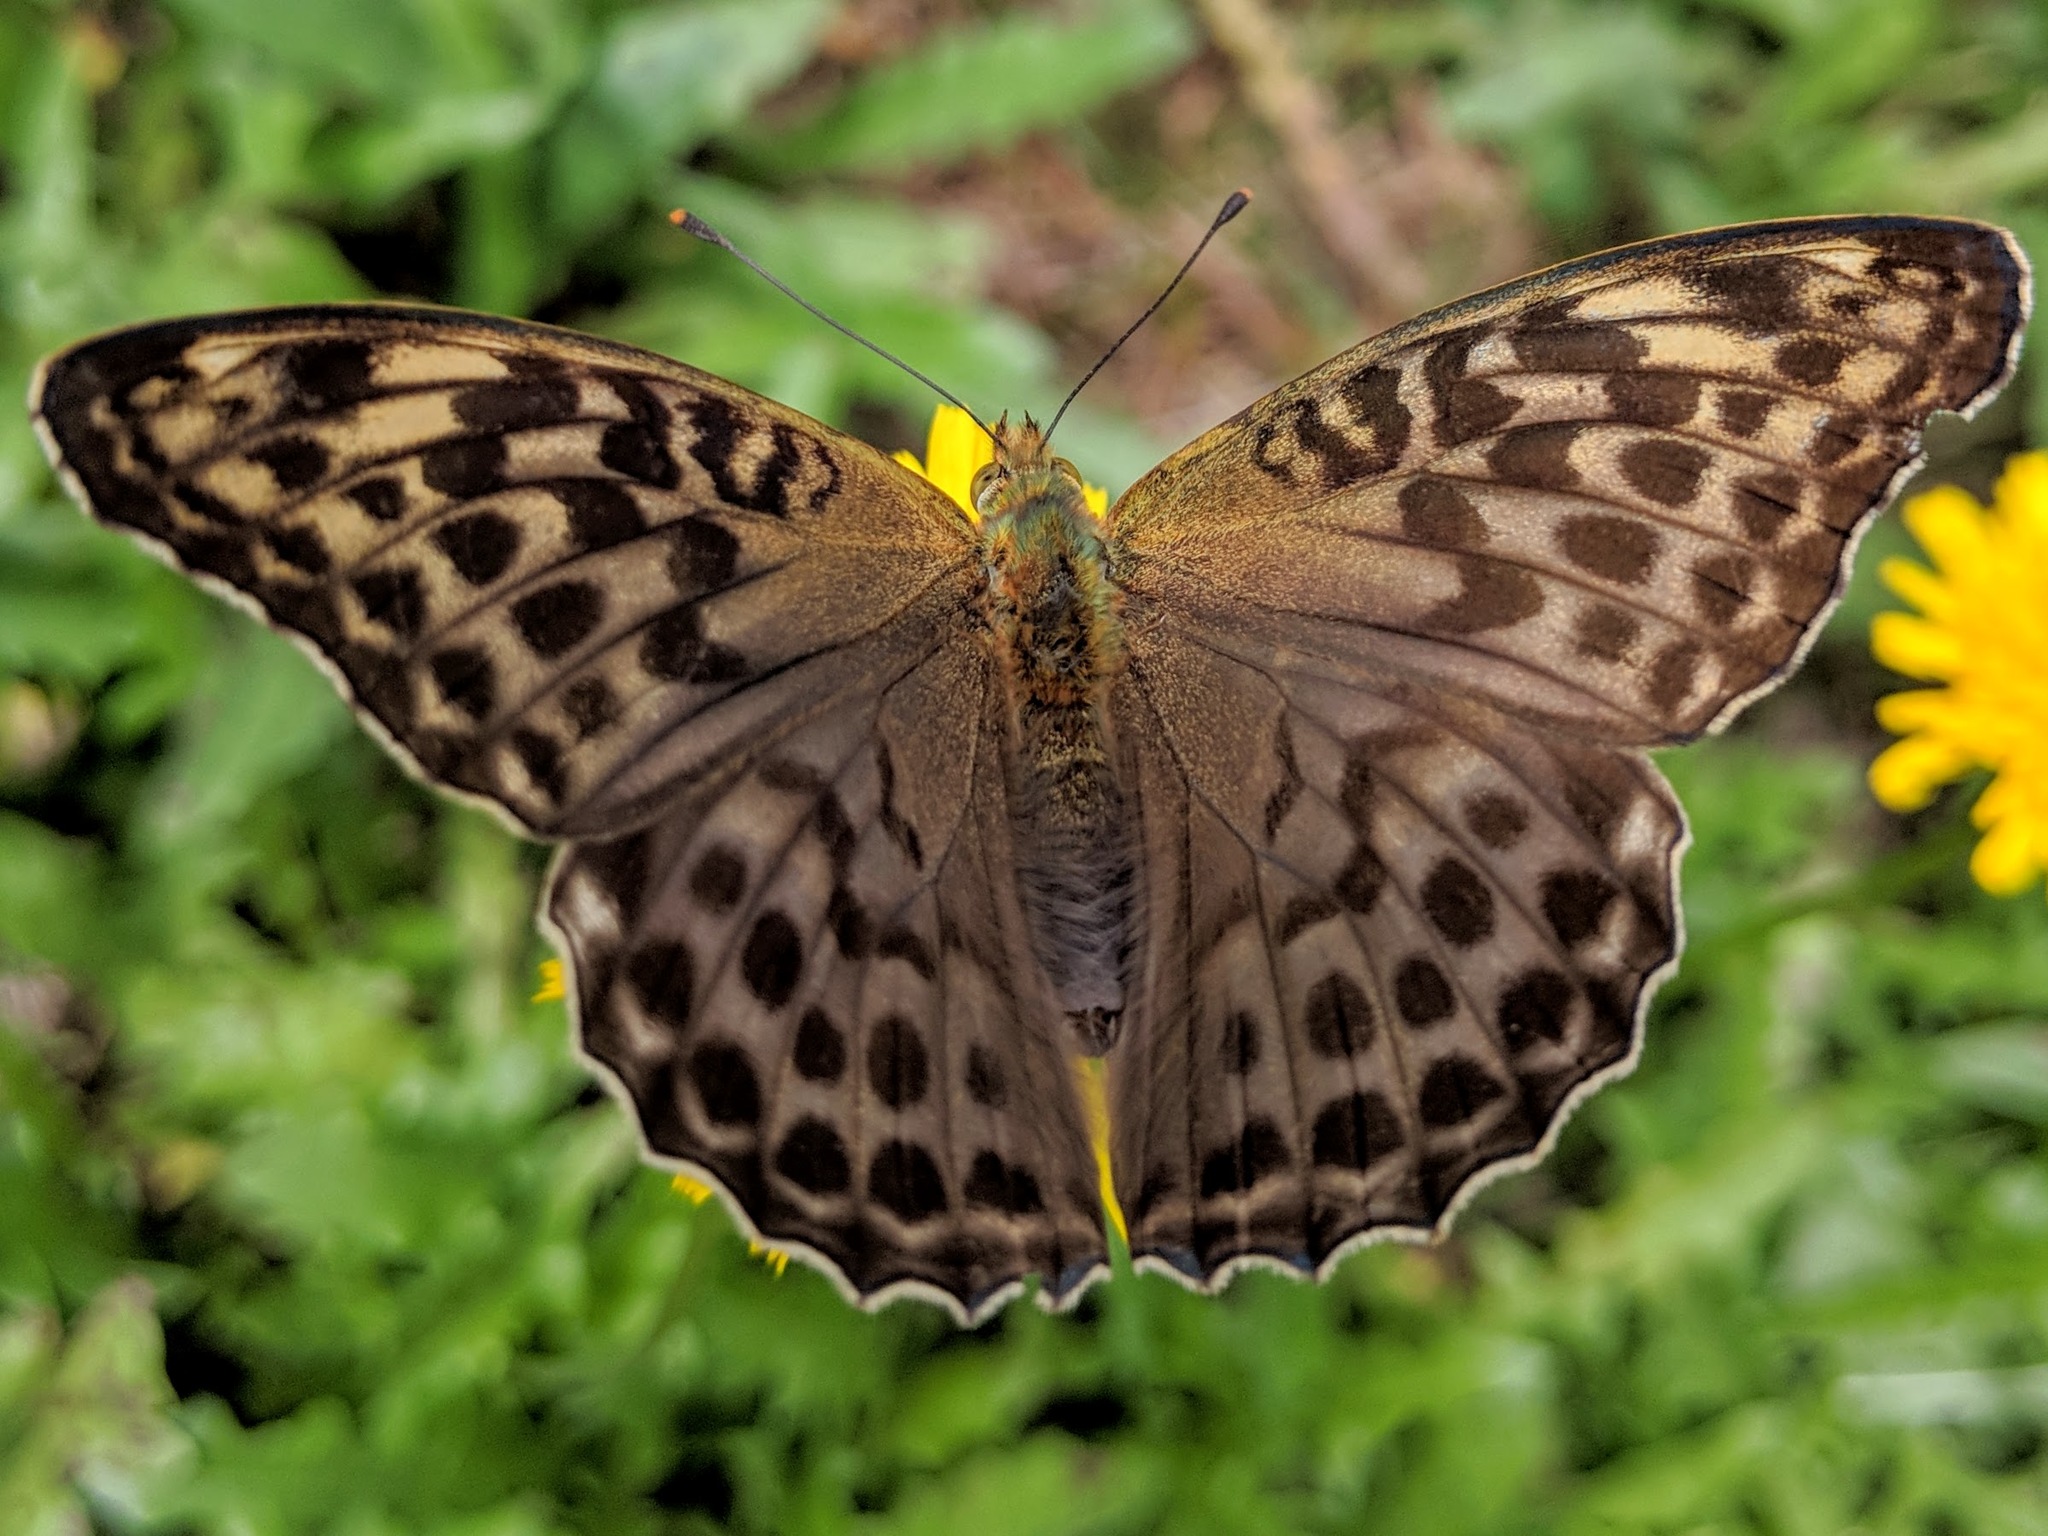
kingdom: Animalia
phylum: Arthropoda
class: Insecta
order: Lepidoptera
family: Nymphalidae
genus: Argynnis
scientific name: Argynnis paphia
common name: Silver-washed fritillary
